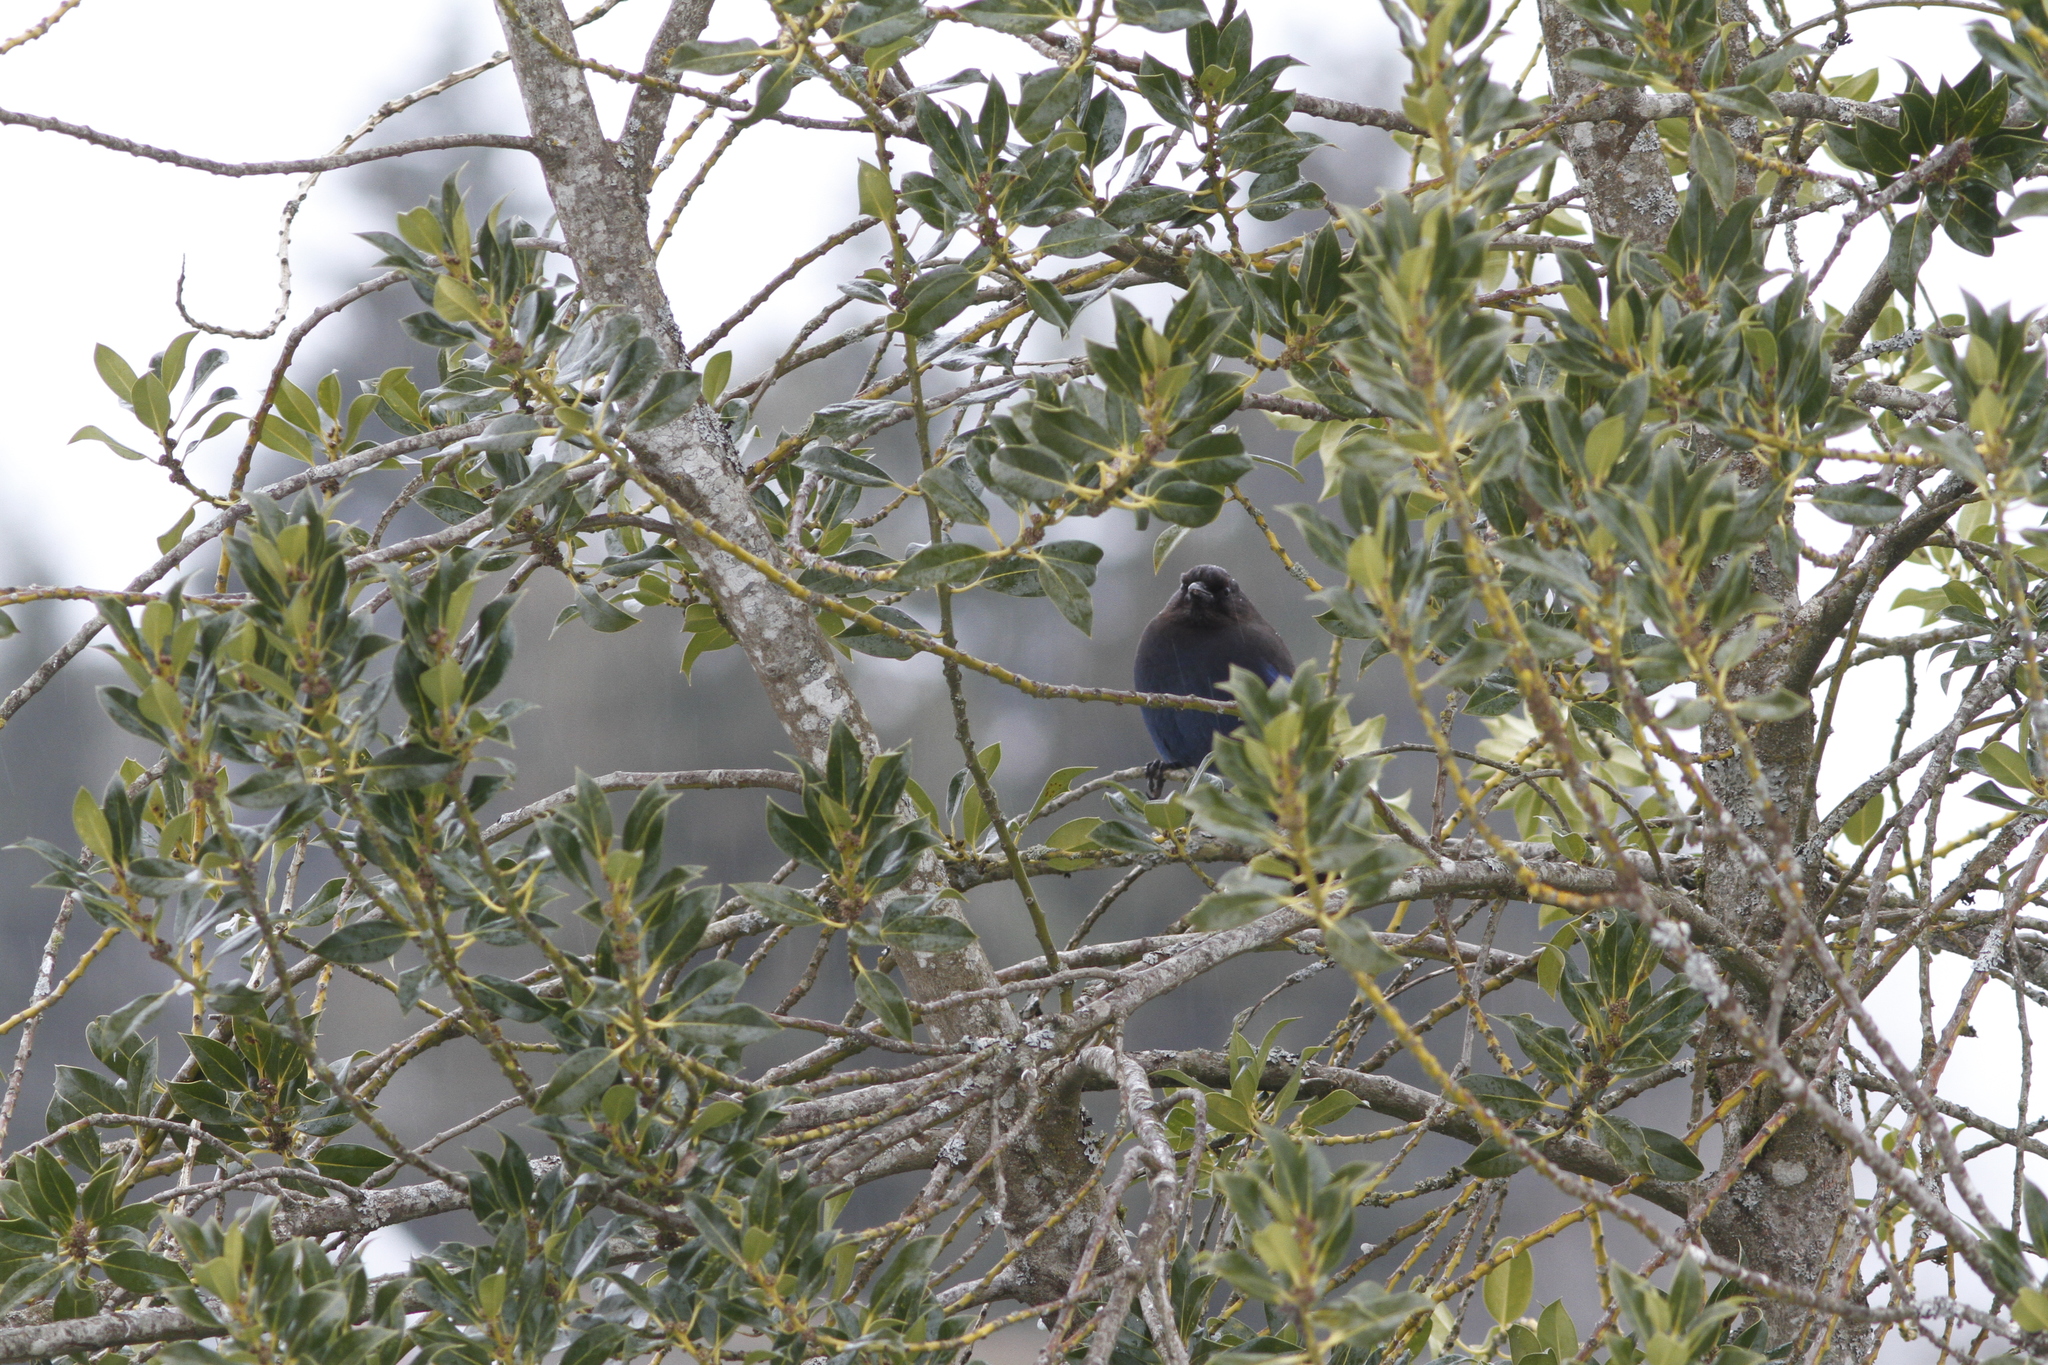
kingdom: Animalia
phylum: Chordata
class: Aves
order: Passeriformes
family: Corvidae
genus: Cyanocitta
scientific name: Cyanocitta stelleri
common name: Steller's jay
